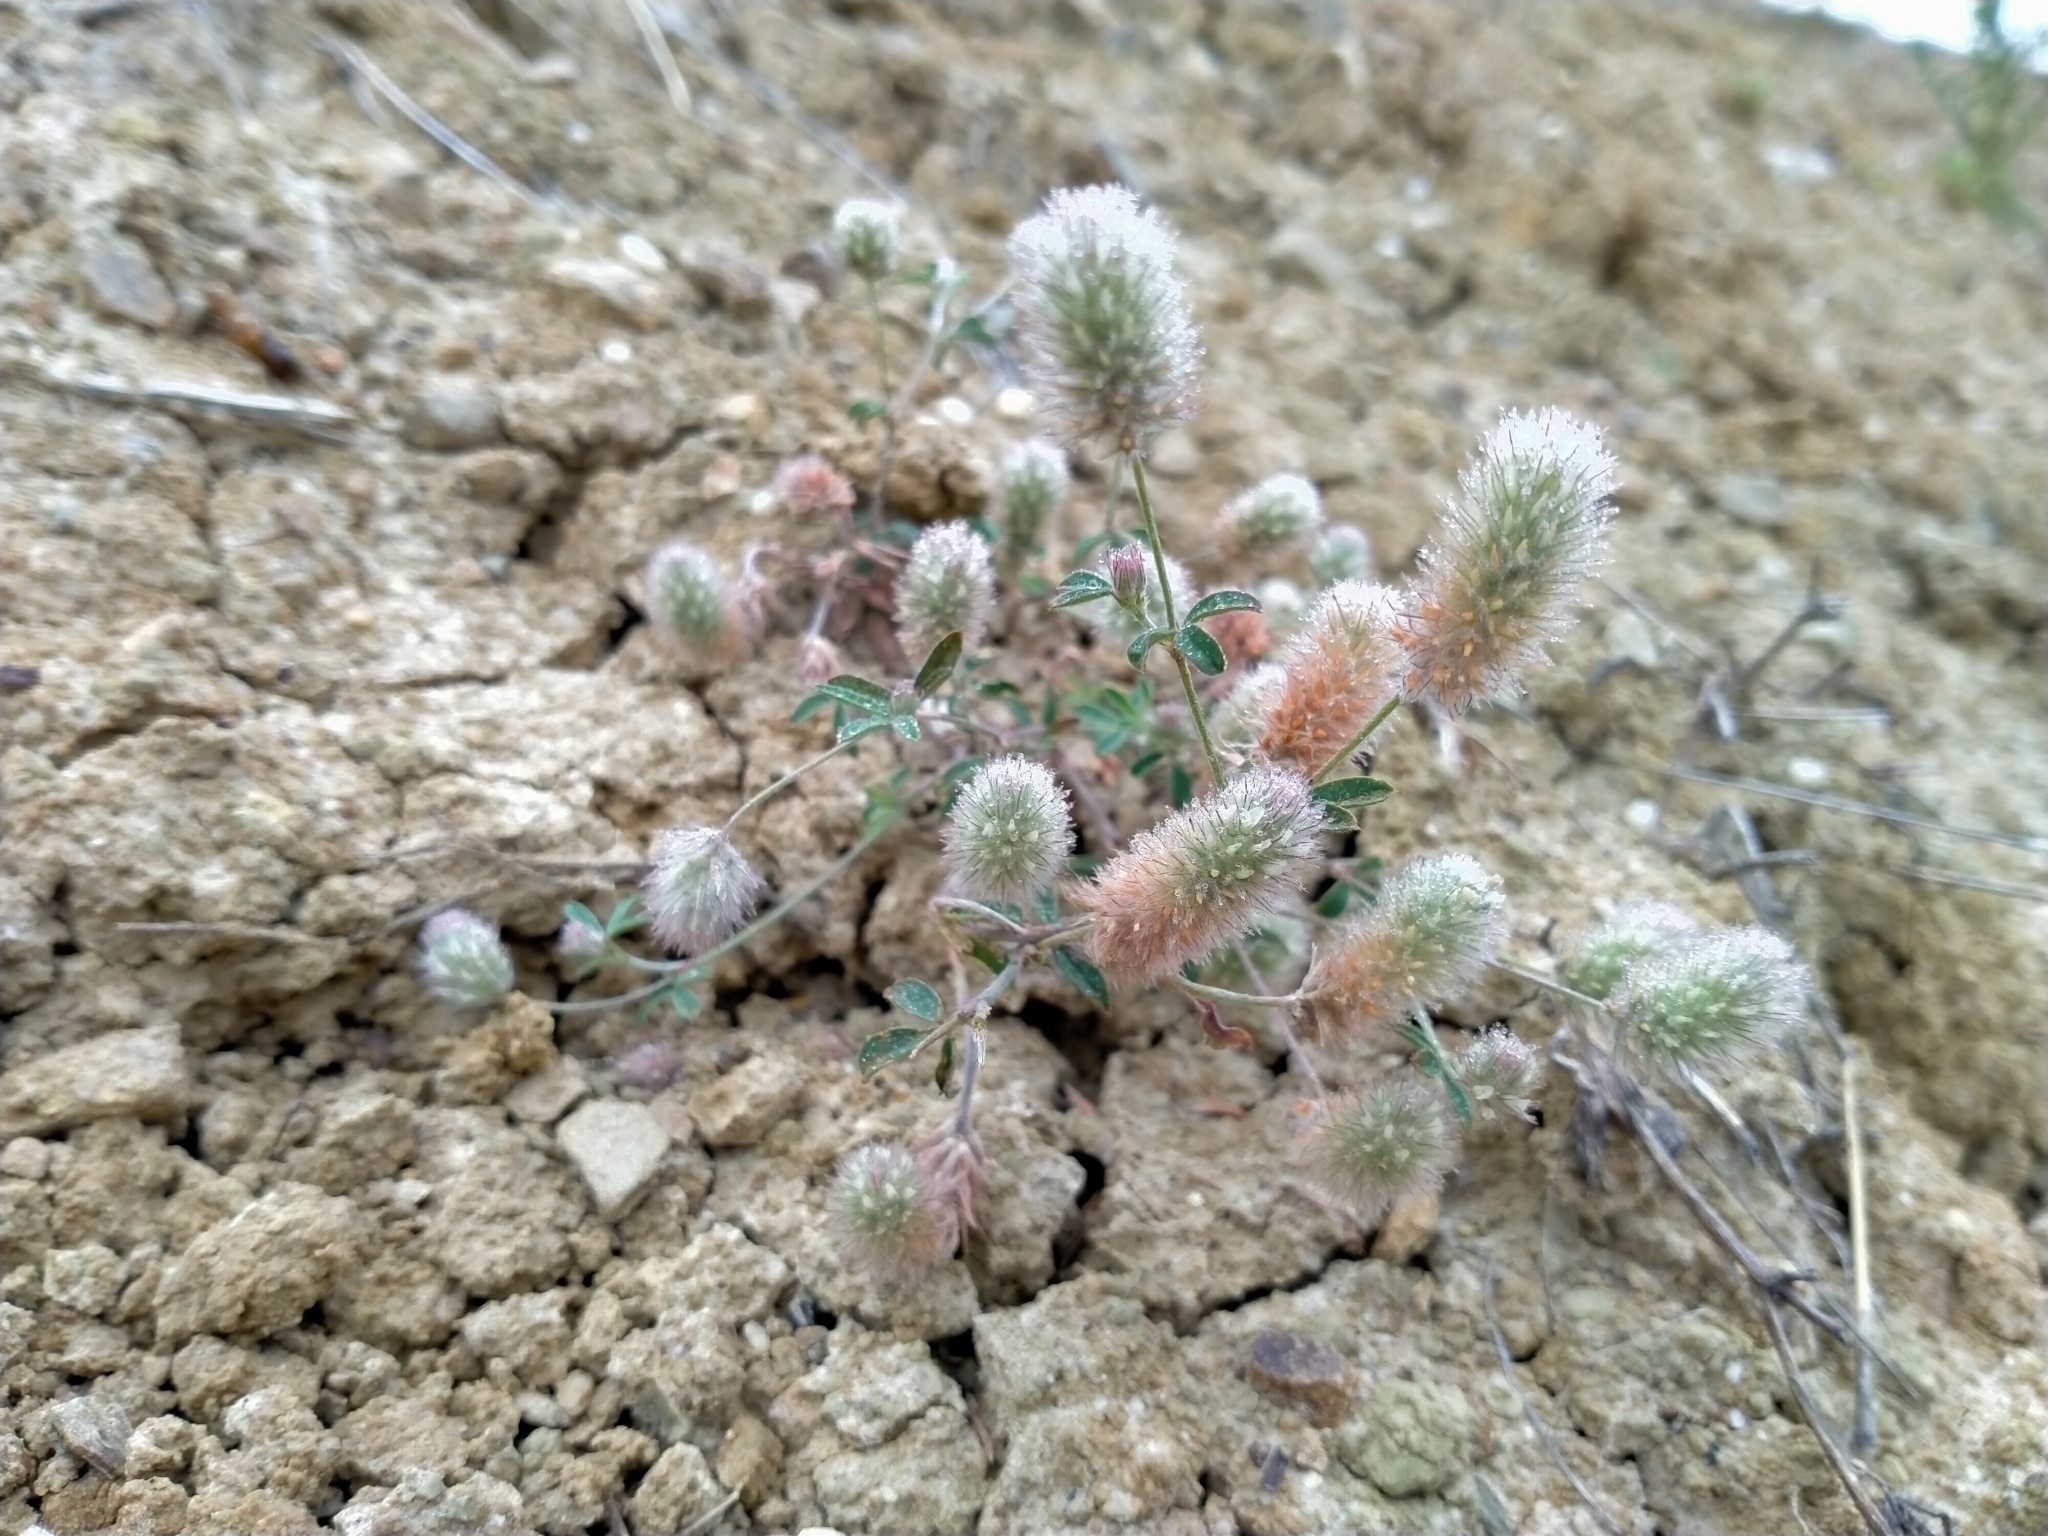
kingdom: Plantae
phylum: Tracheophyta
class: Magnoliopsida
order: Fabales
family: Fabaceae
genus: Trifolium
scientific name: Trifolium arvense
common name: Hare's-foot clover
